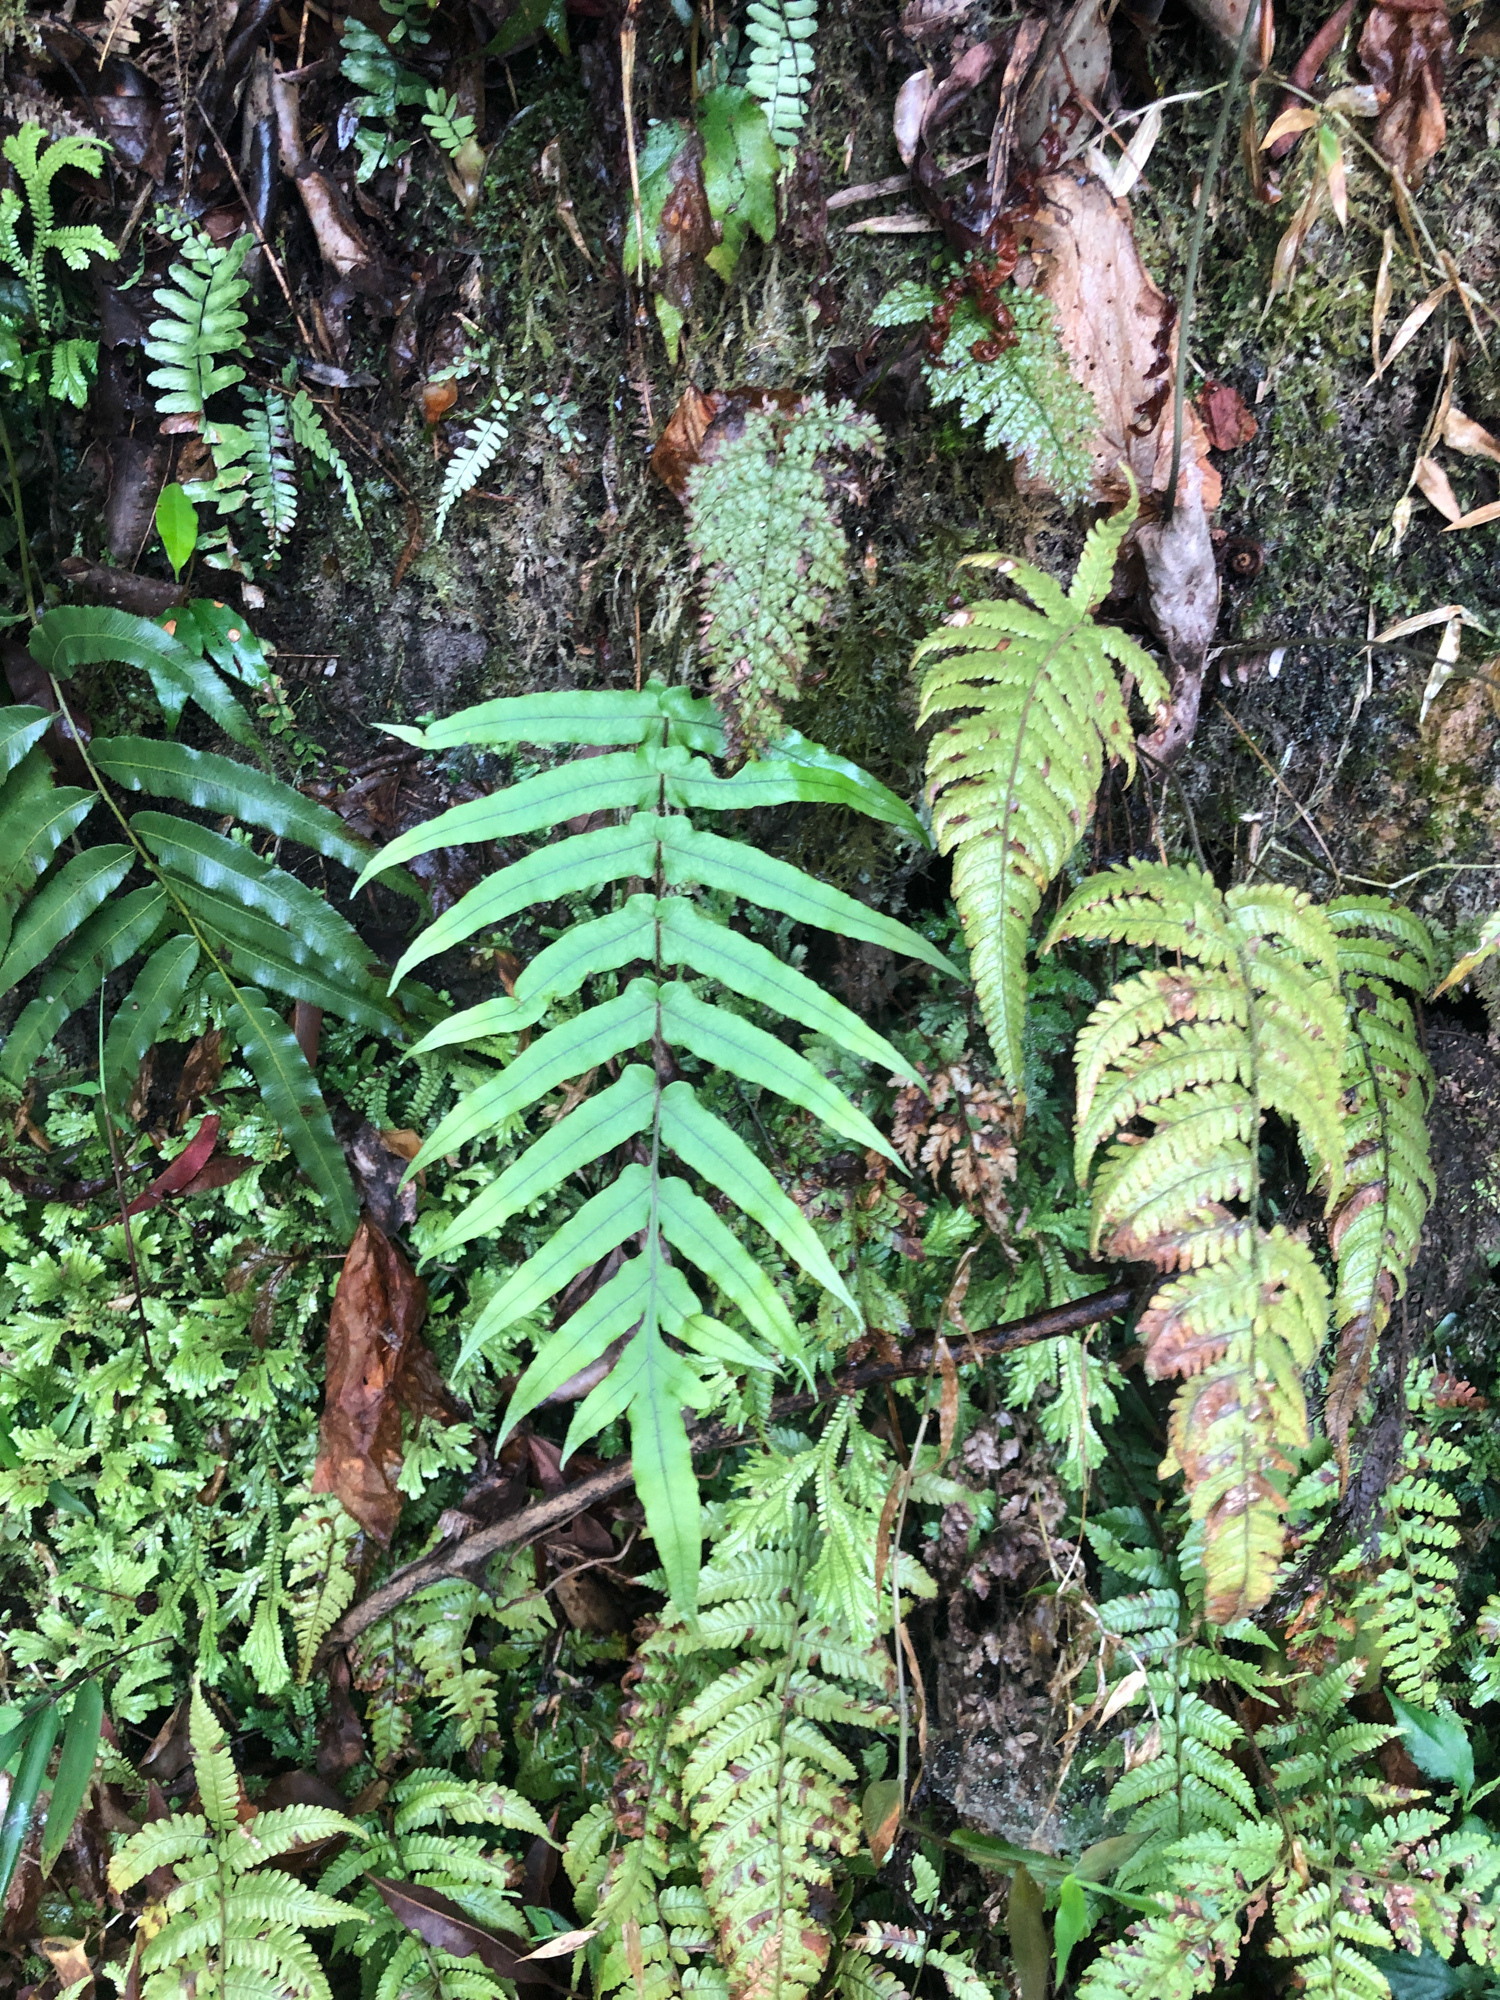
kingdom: Plantae
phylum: Tracheophyta
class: Polypodiopsida
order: Polypodiales
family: Polypodiaceae
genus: Goniophlebium
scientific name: Goniophlebium mengtzeense
